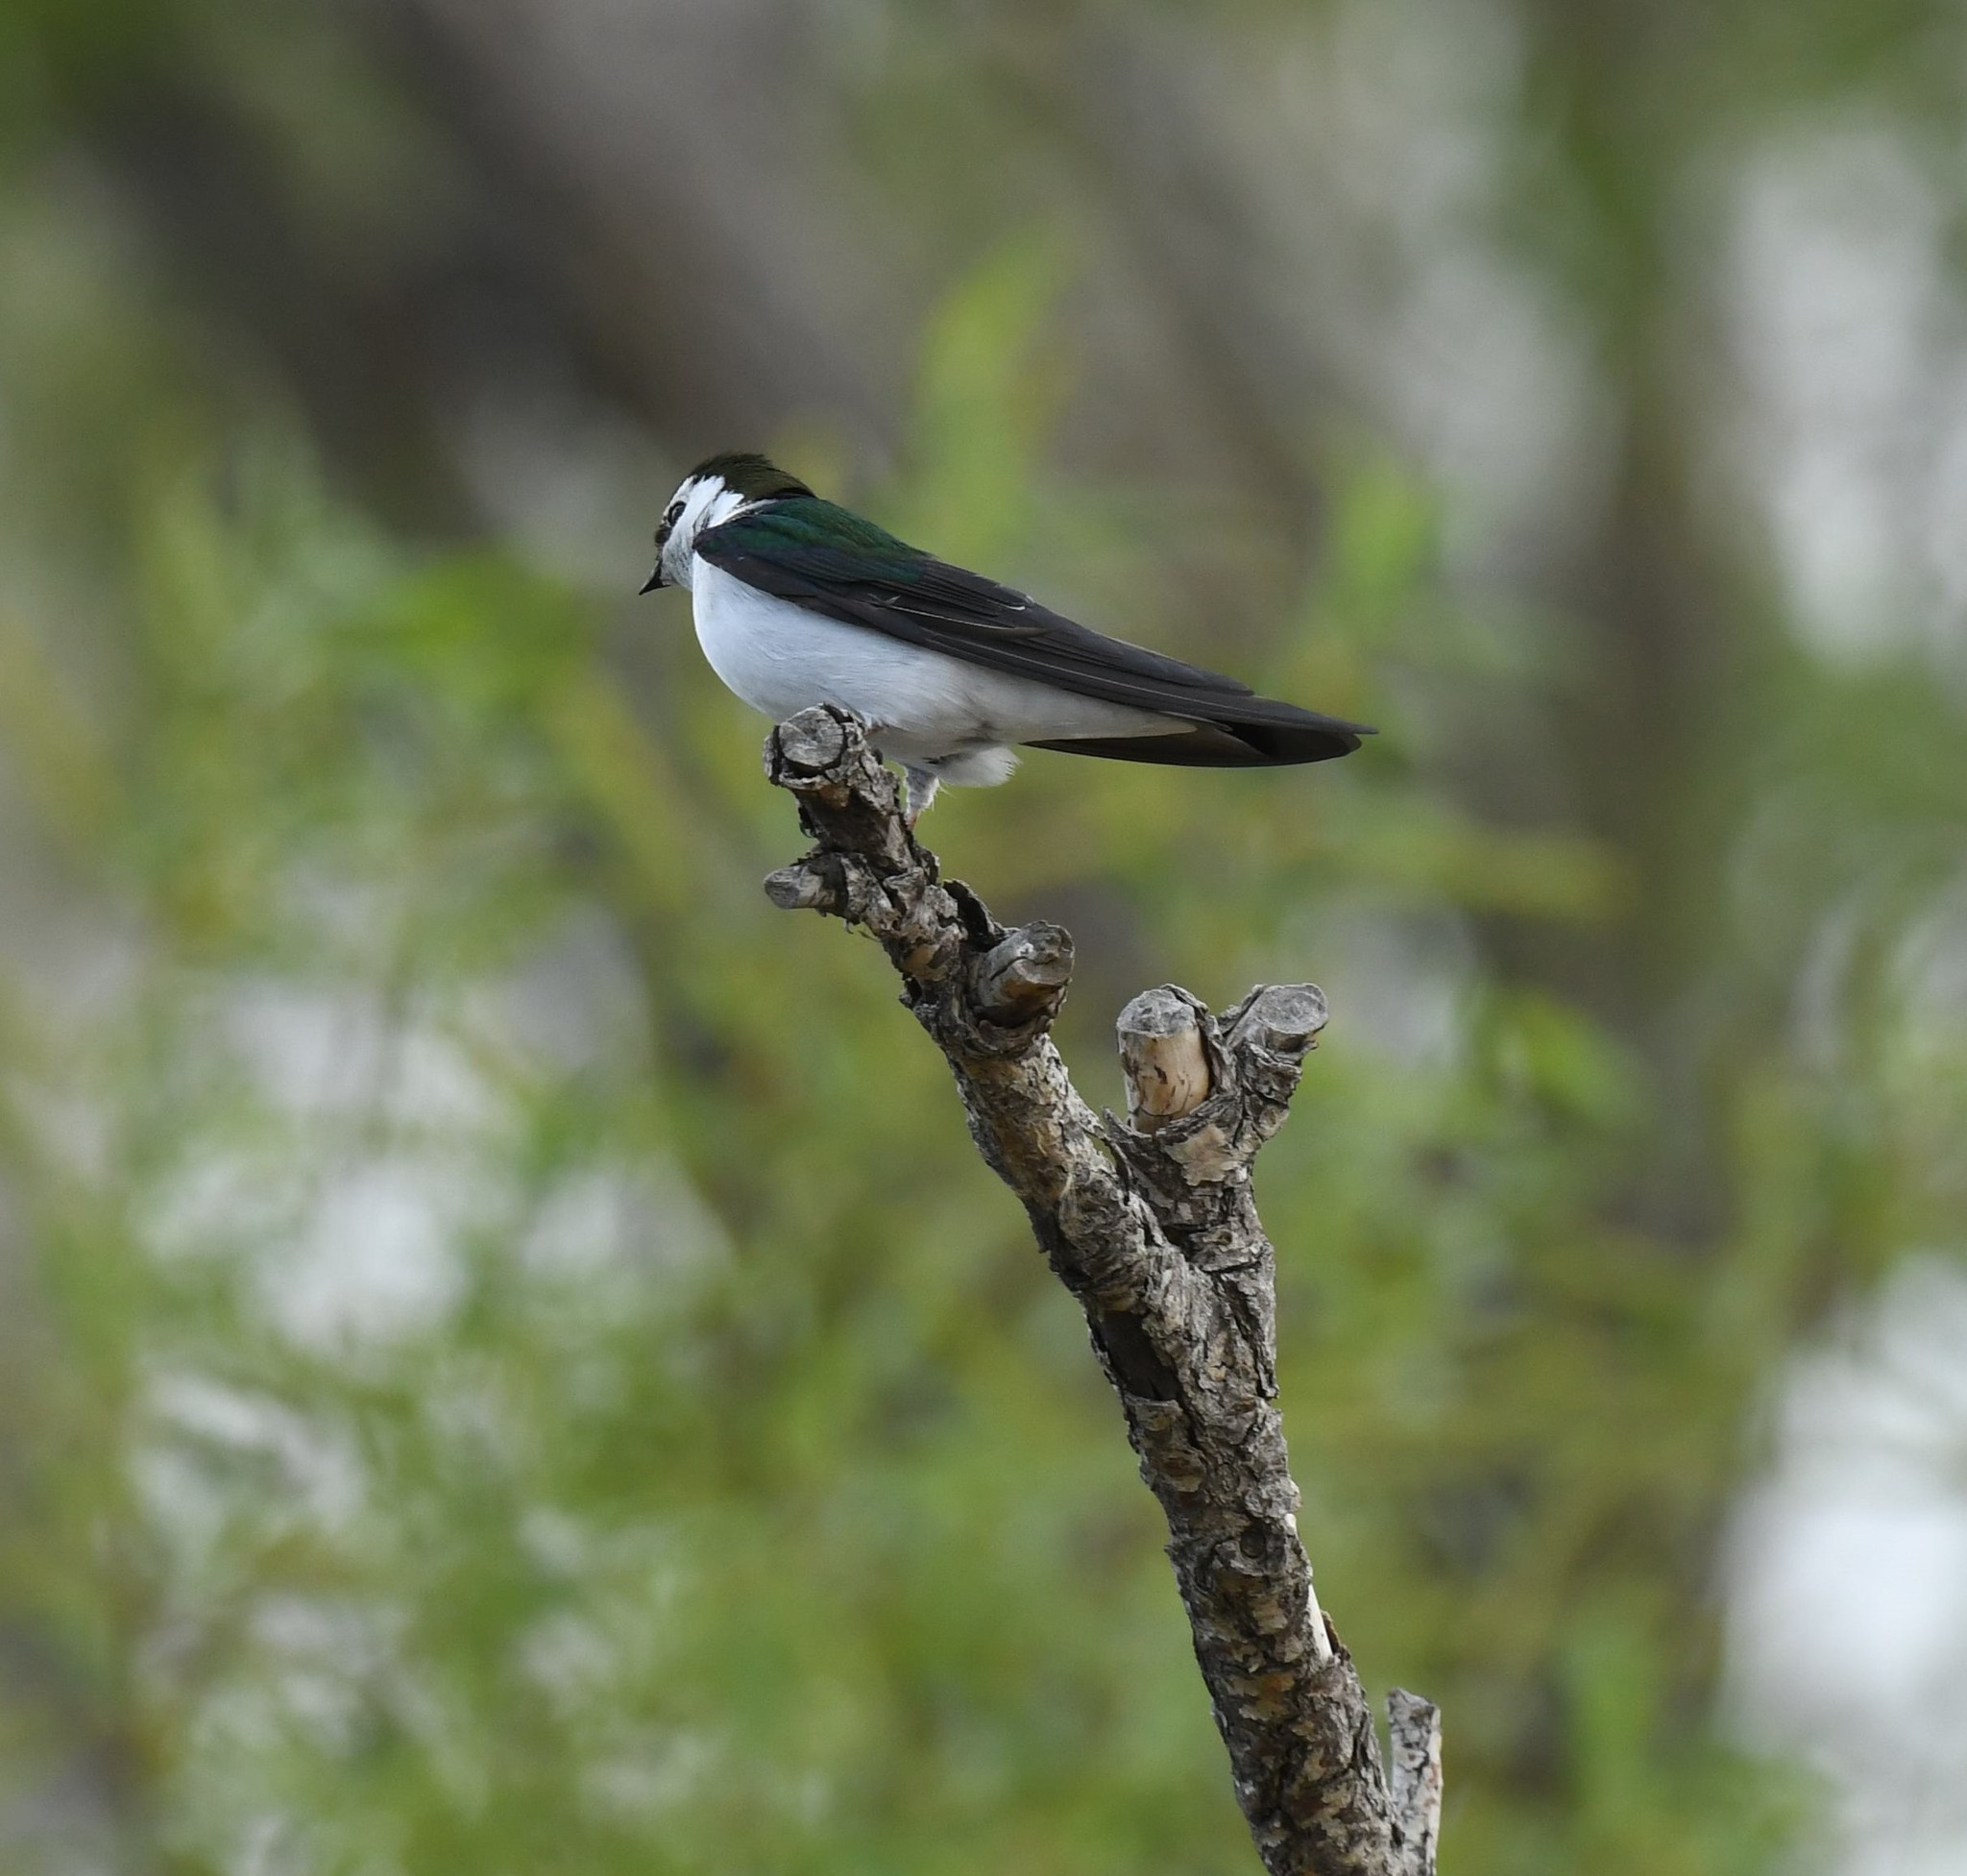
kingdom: Animalia
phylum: Chordata
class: Aves
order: Passeriformes
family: Hirundinidae
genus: Tachycineta
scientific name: Tachycineta thalassina
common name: Violet-green swallow
